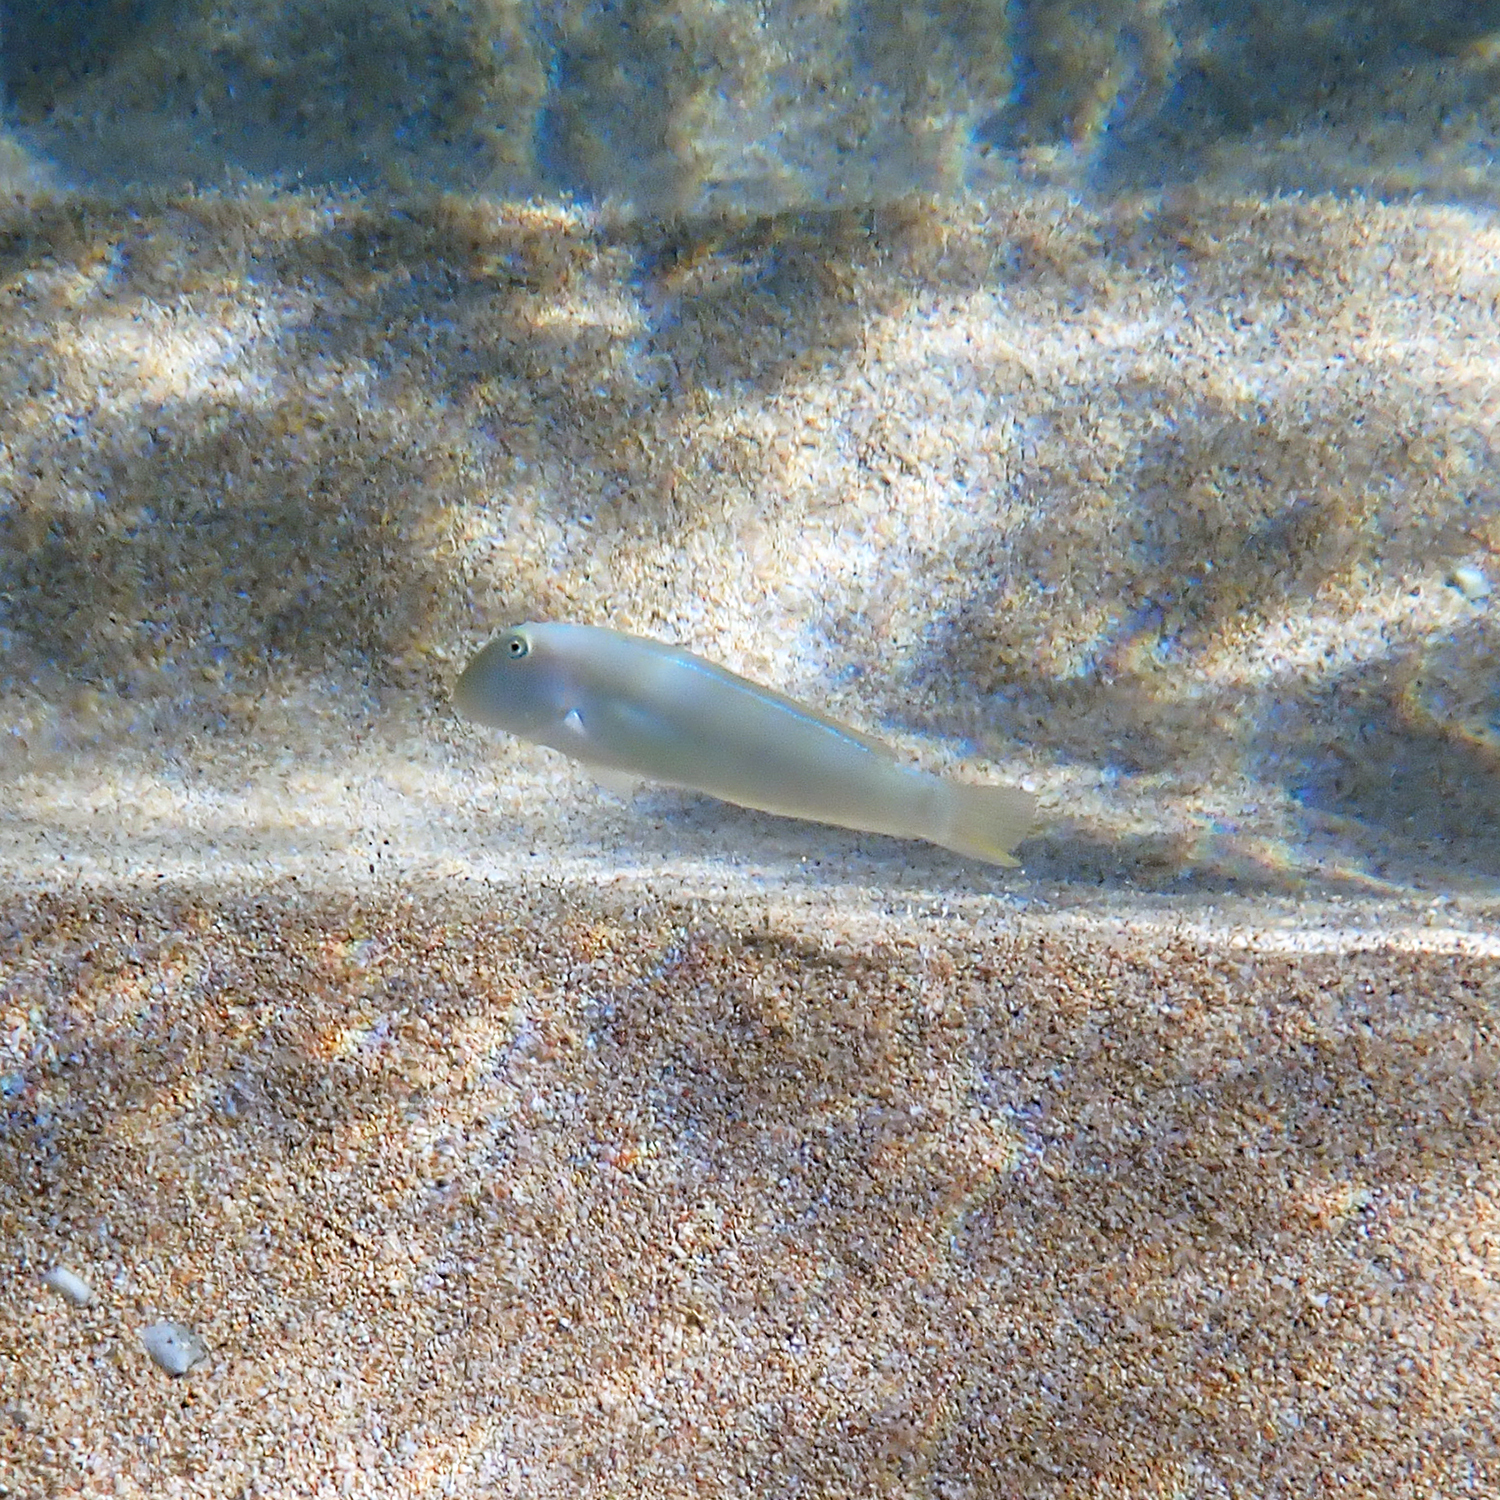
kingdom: Animalia
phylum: Chordata
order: Perciformes
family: Labridae
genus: Cymolutes
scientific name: Cymolutes praetextatus
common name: Knife razorfish
